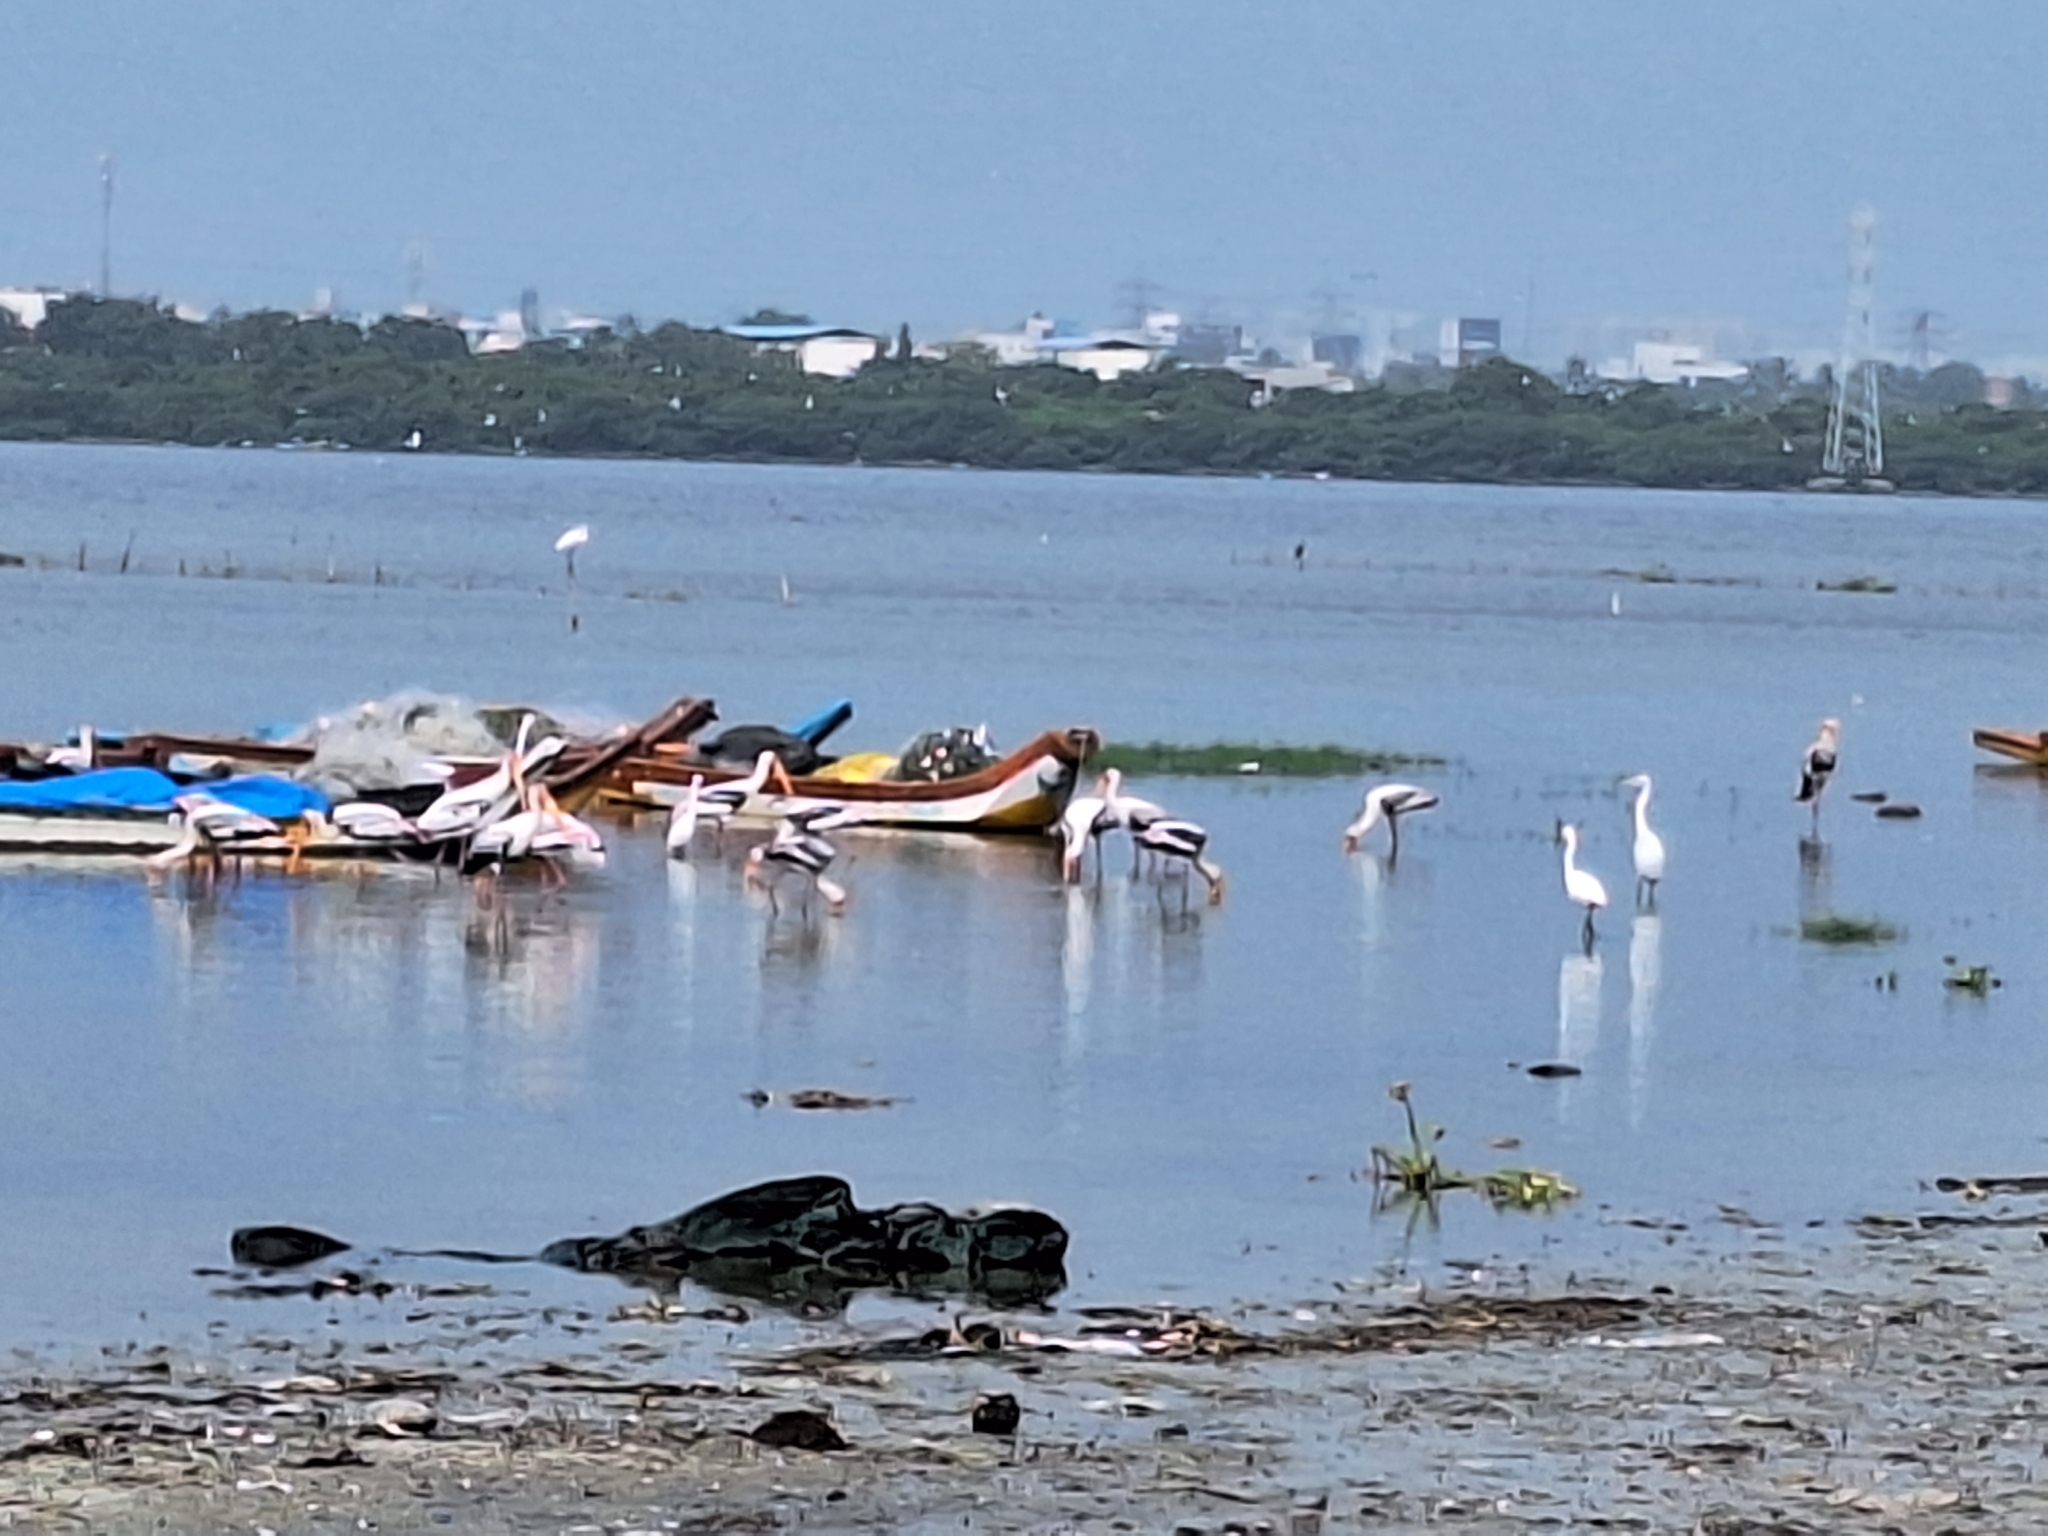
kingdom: Animalia
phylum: Chordata
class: Aves
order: Ciconiiformes
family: Ciconiidae
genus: Mycteria
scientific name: Mycteria leucocephala
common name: Painted stork
